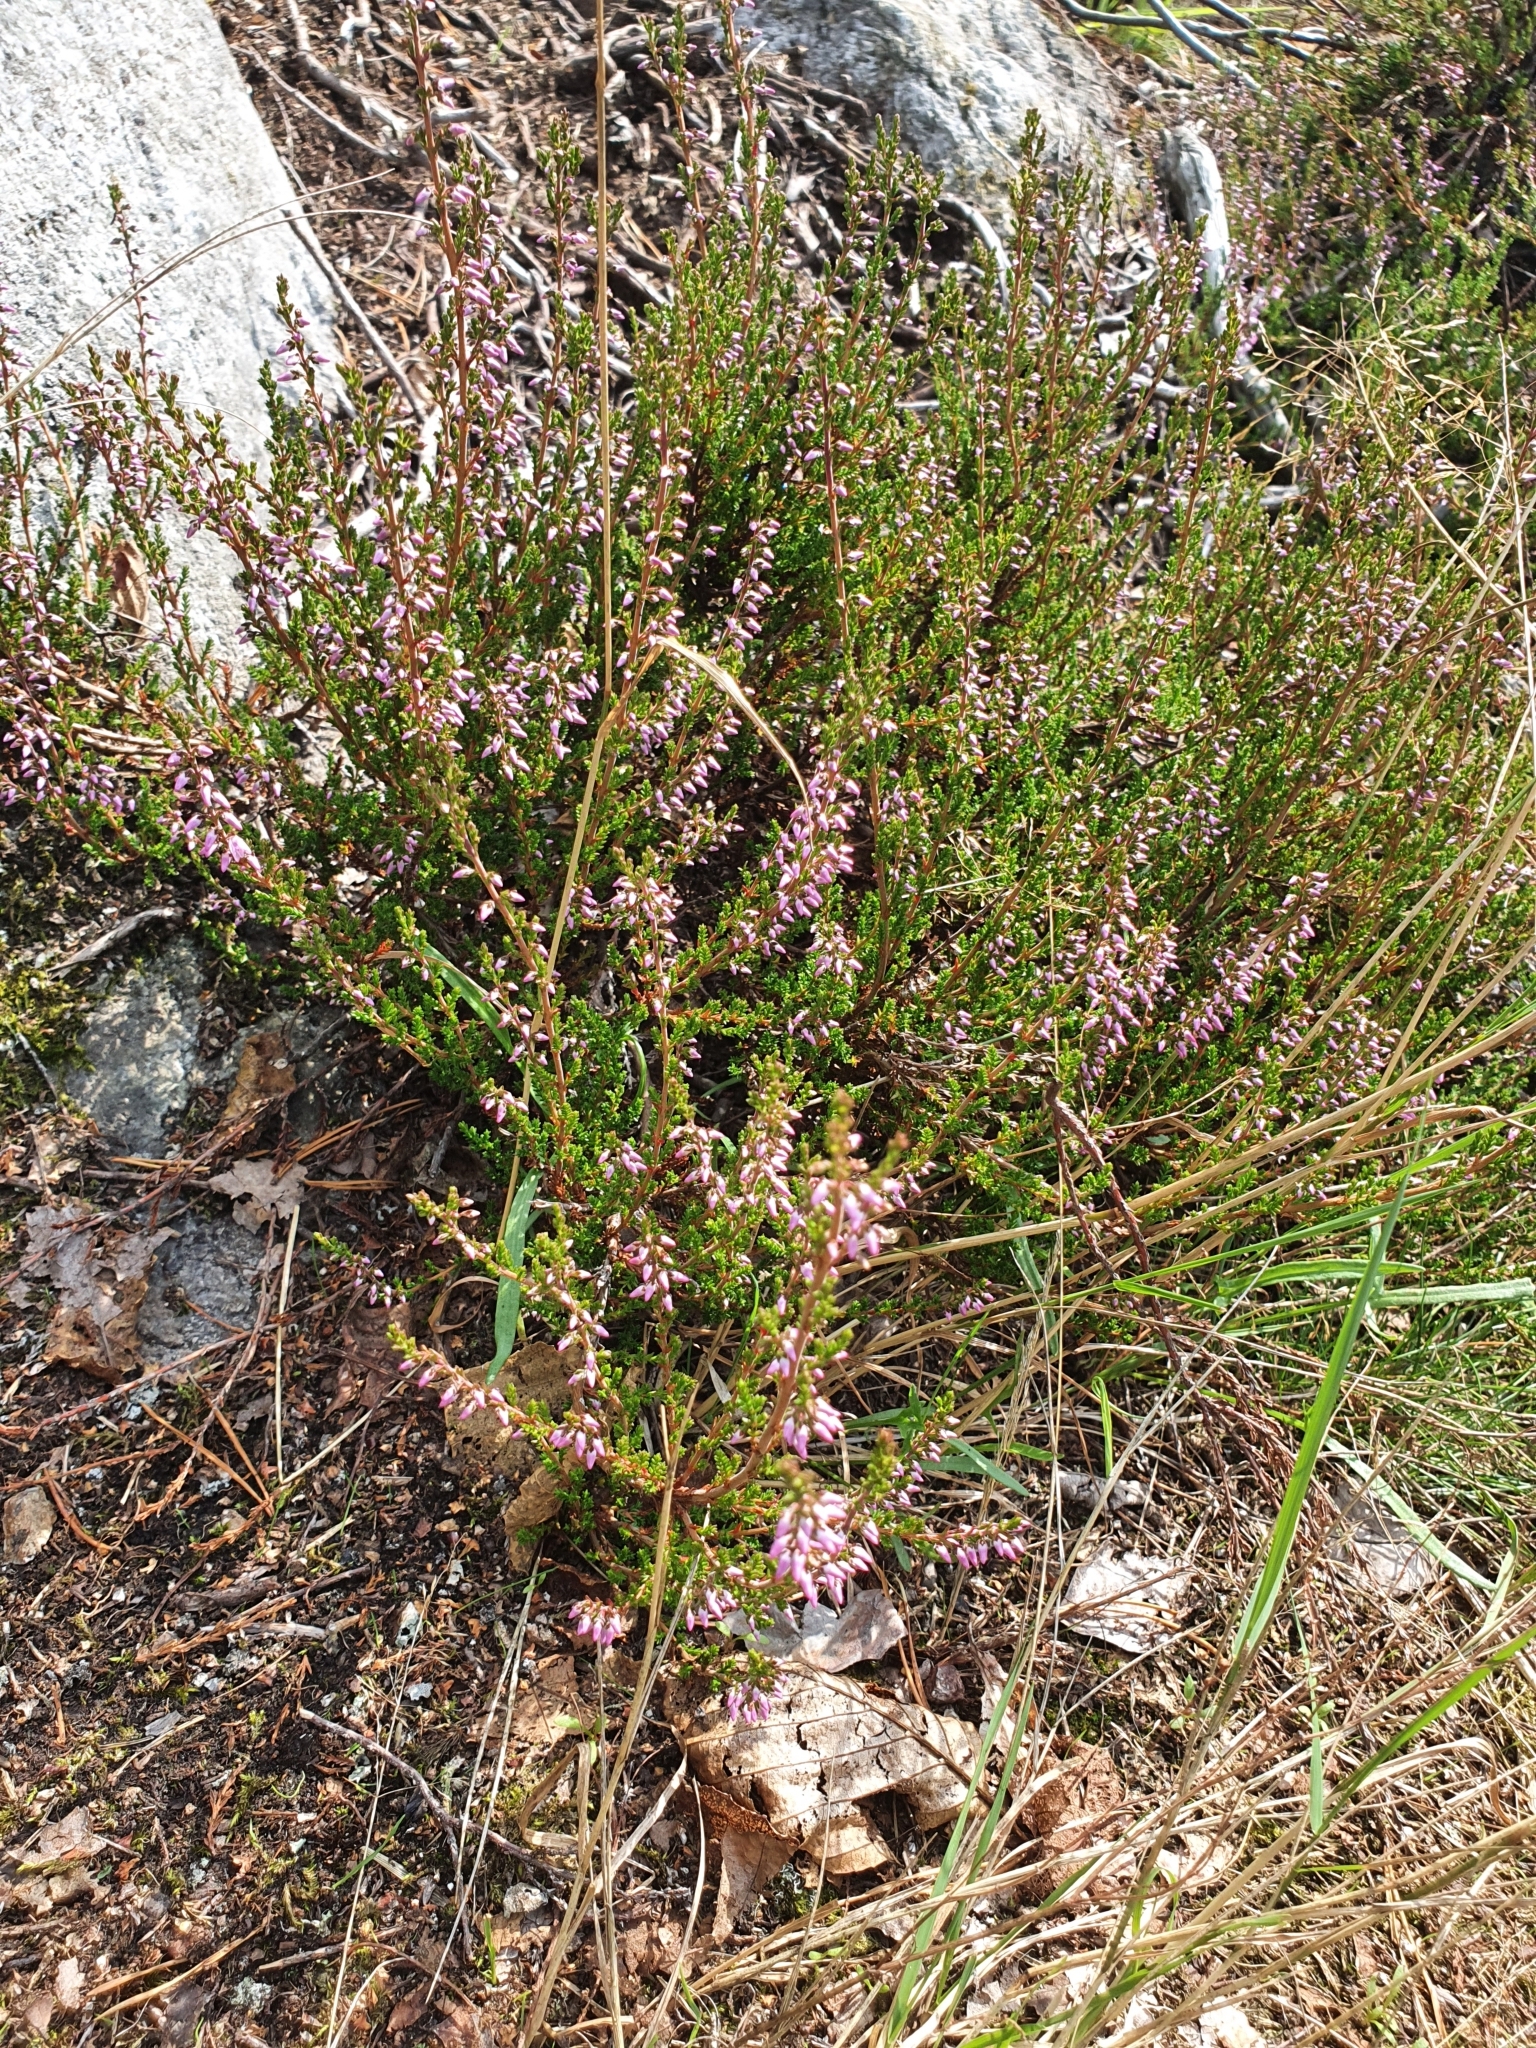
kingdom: Plantae
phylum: Tracheophyta
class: Magnoliopsida
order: Ericales
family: Ericaceae
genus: Calluna
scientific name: Calluna vulgaris
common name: Heather
